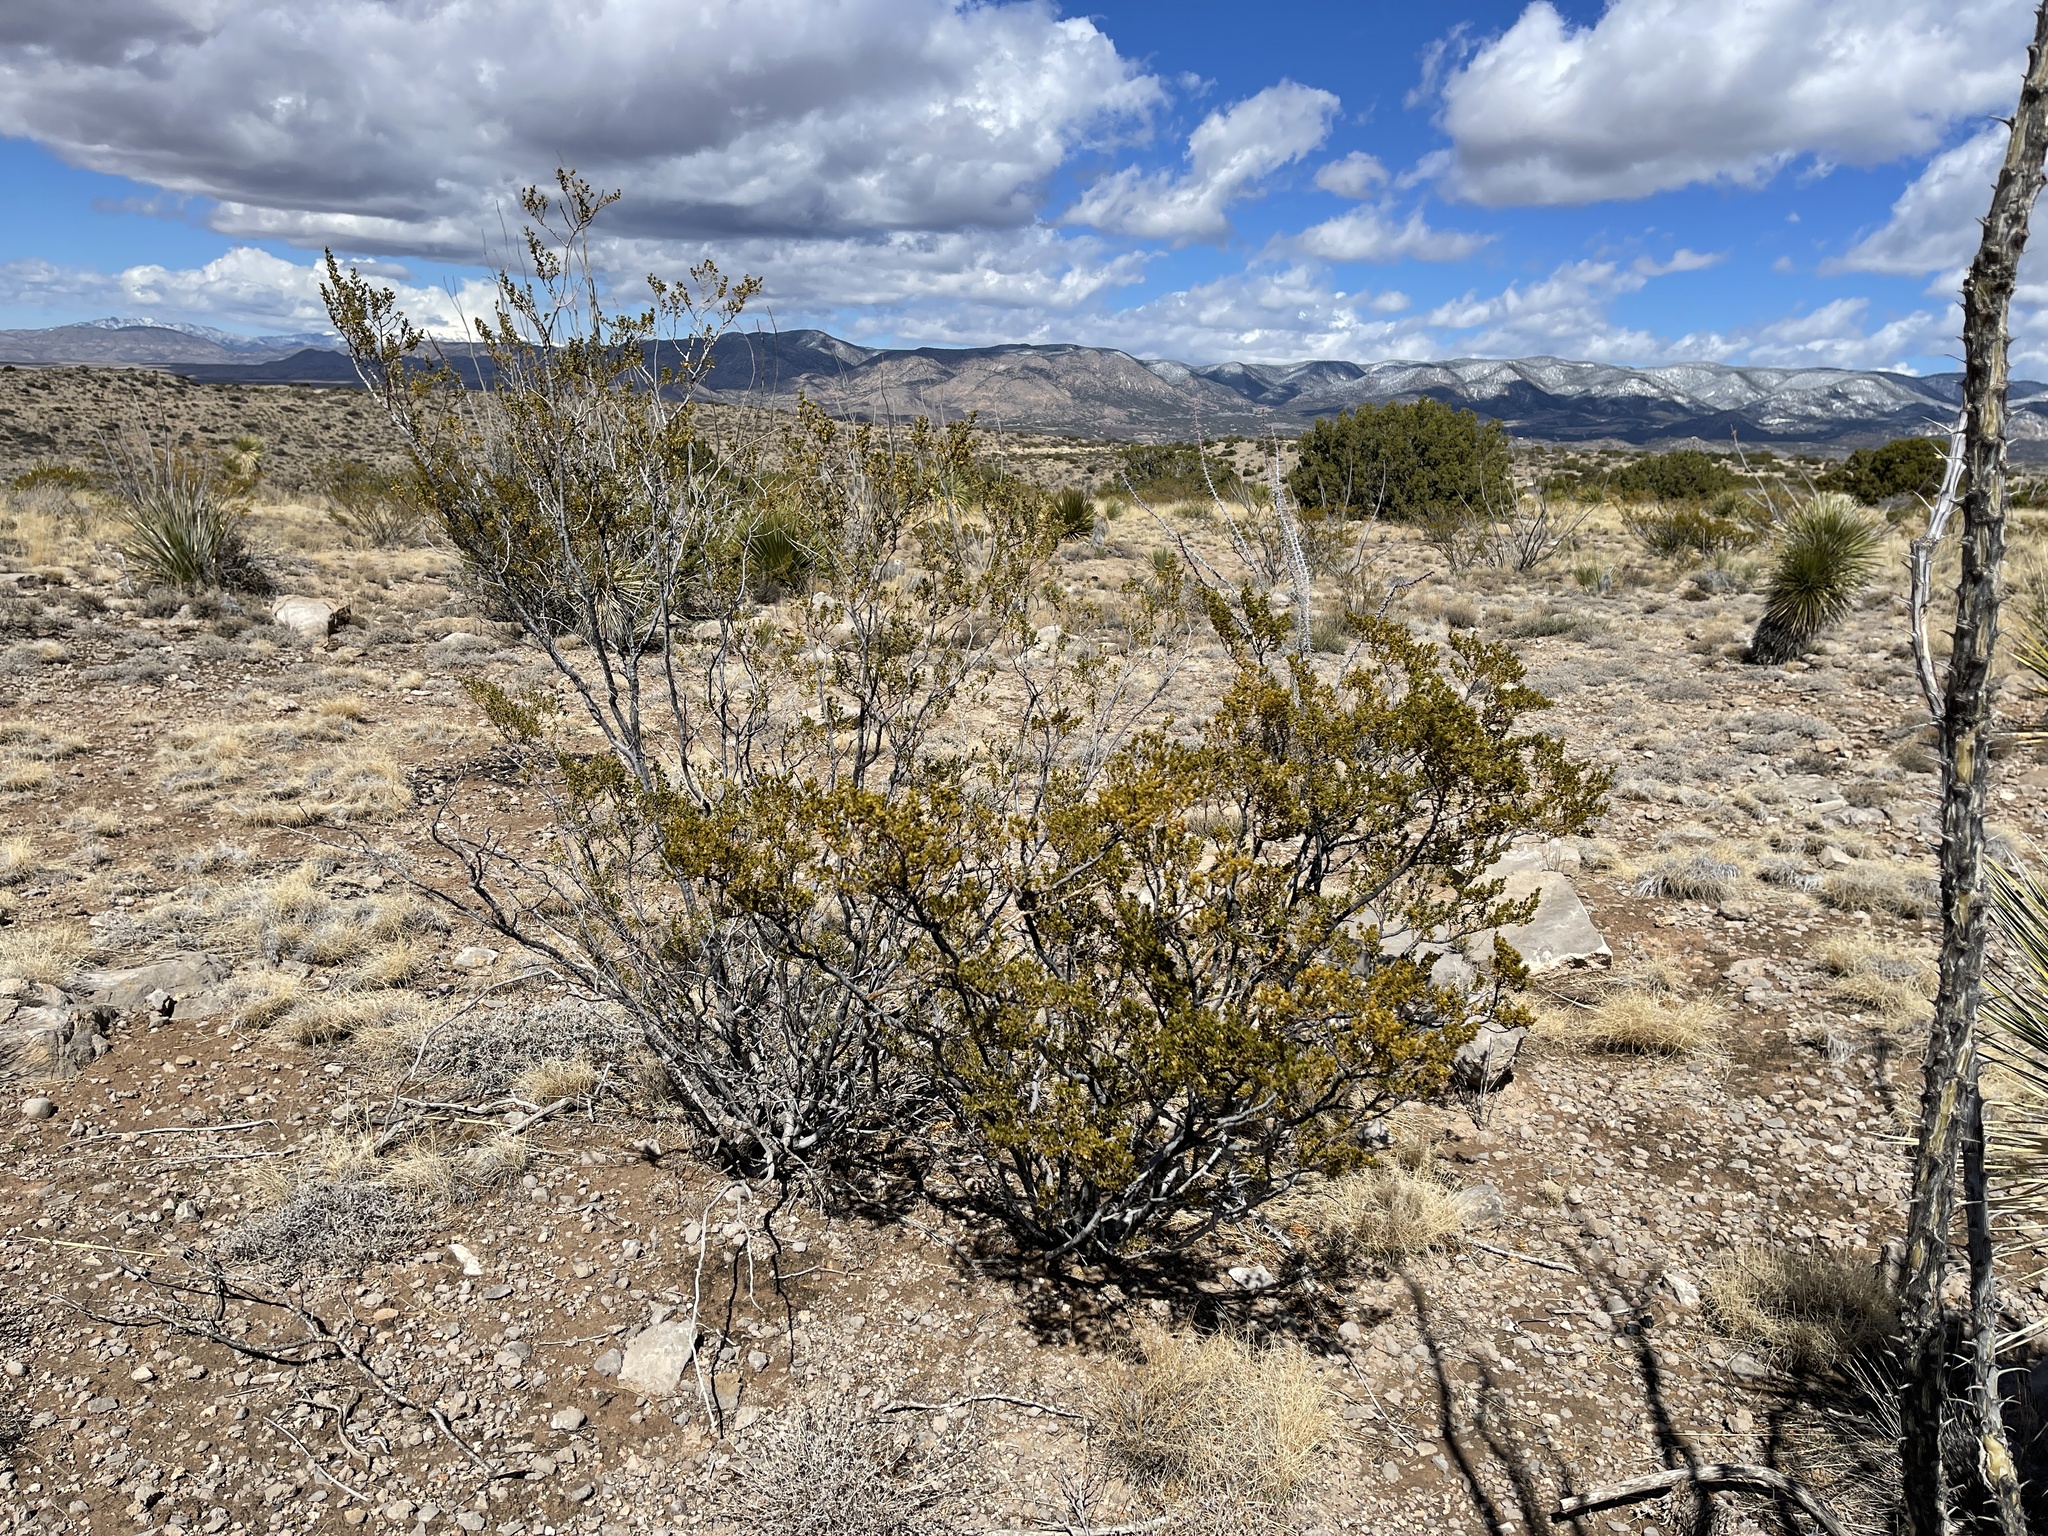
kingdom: Plantae
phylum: Tracheophyta
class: Magnoliopsida
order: Zygophyllales
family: Zygophyllaceae
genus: Larrea
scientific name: Larrea tridentata
